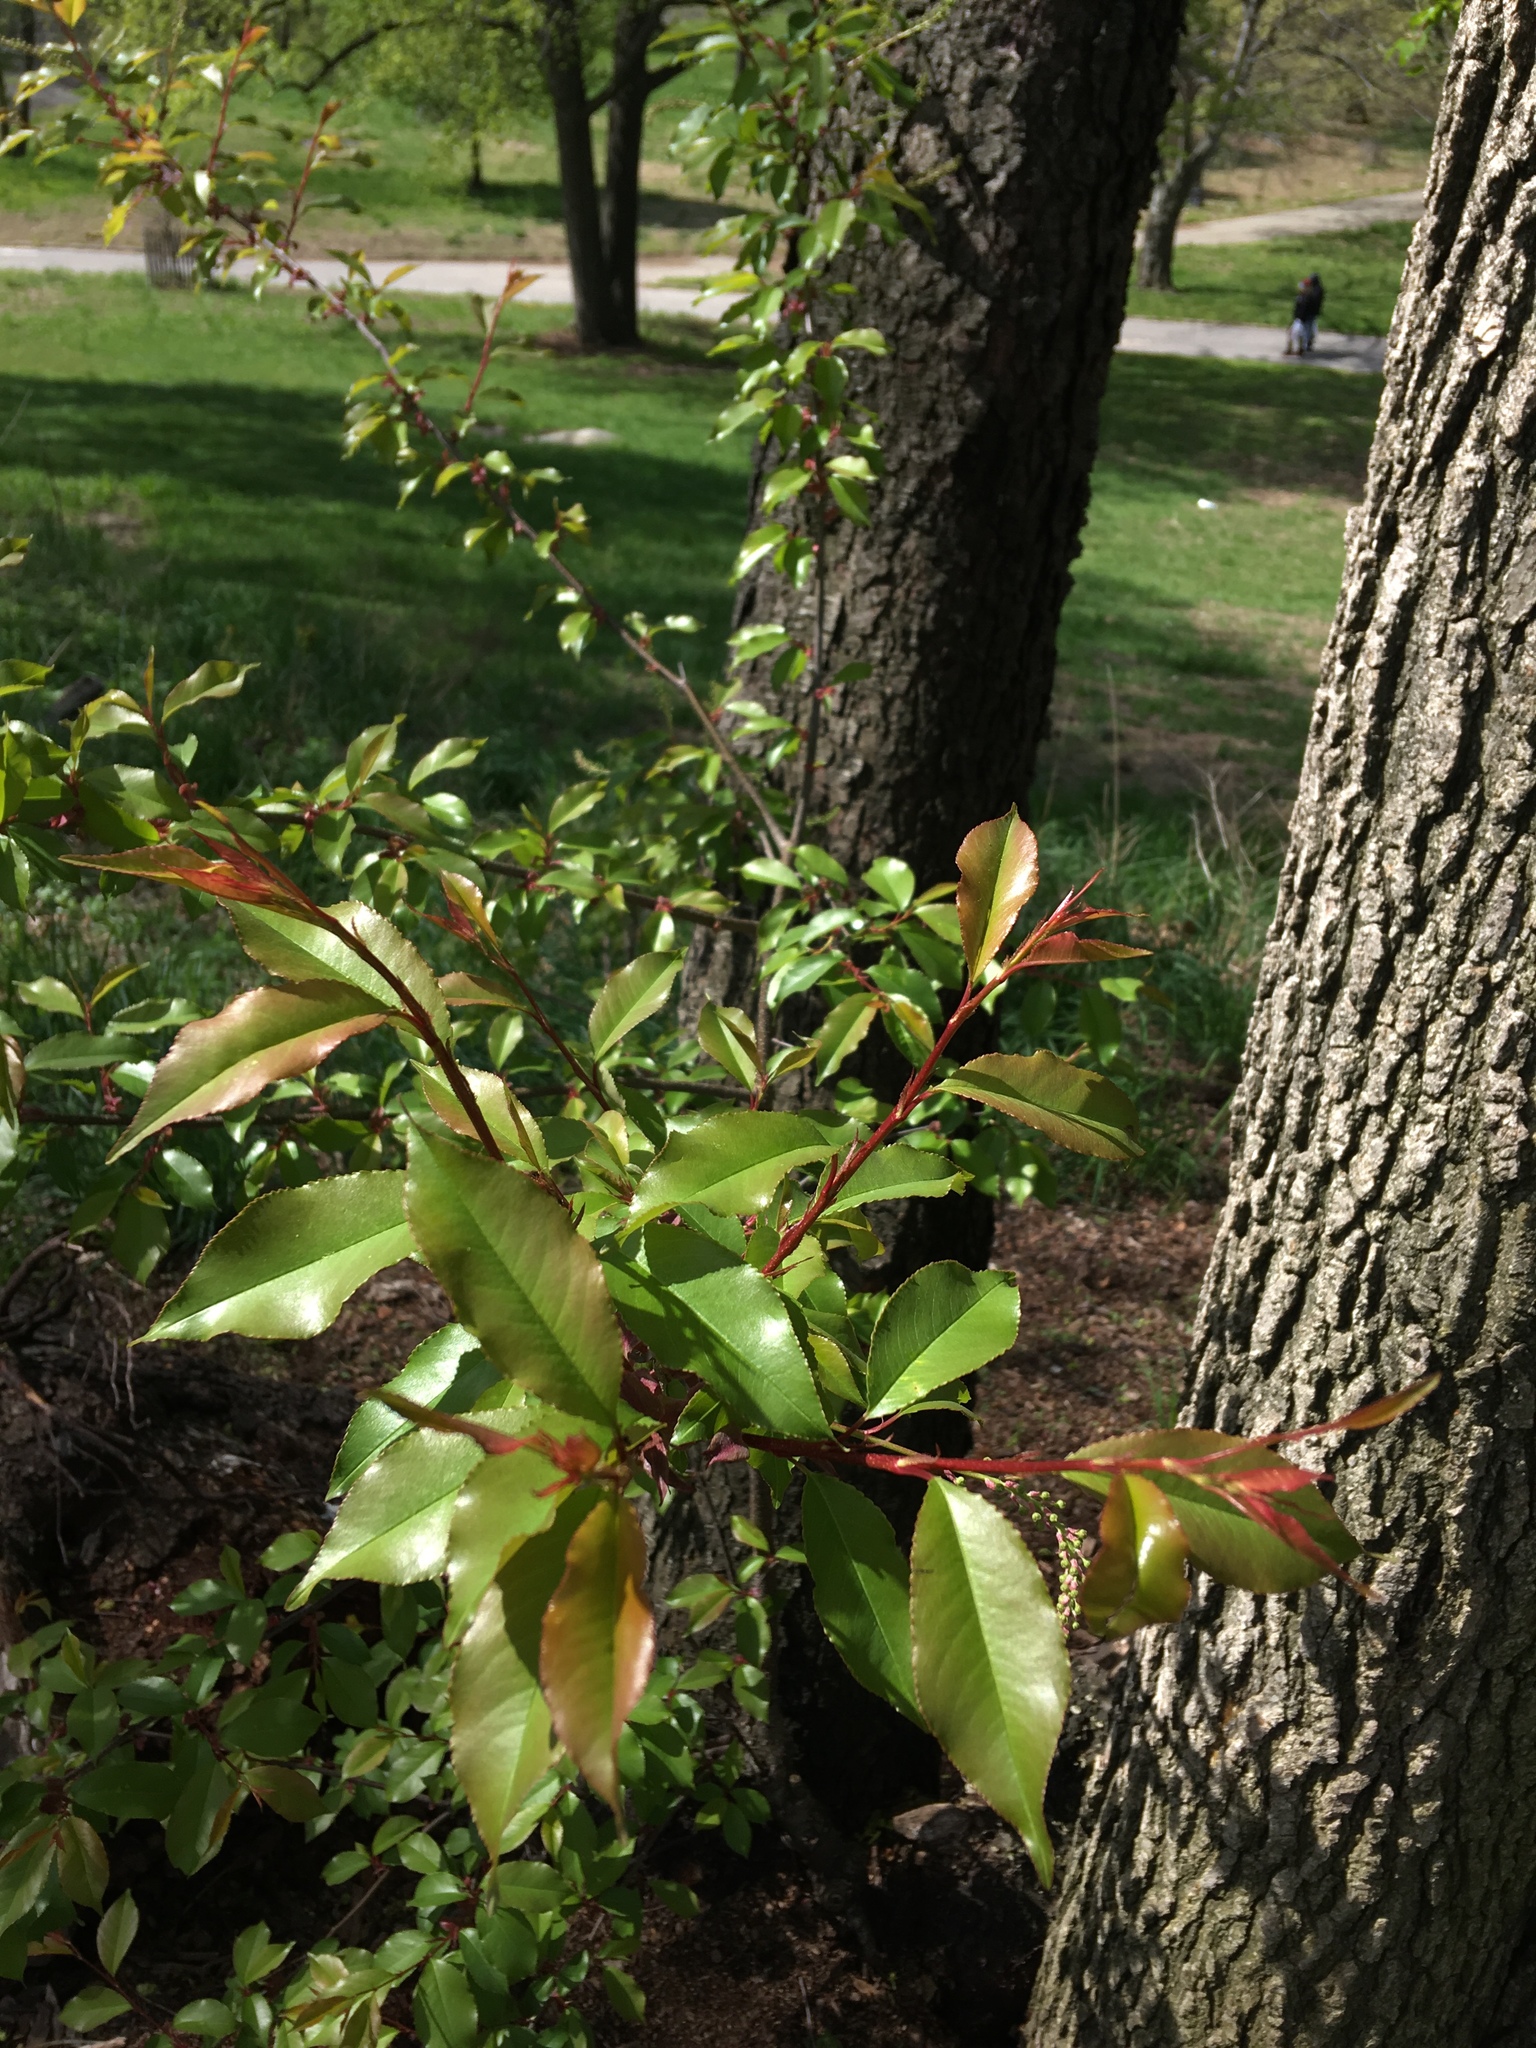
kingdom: Plantae
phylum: Tracheophyta
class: Magnoliopsida
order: Rosales
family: Rosaceae
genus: Prunus
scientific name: Prunus serotina
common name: Black cherry
